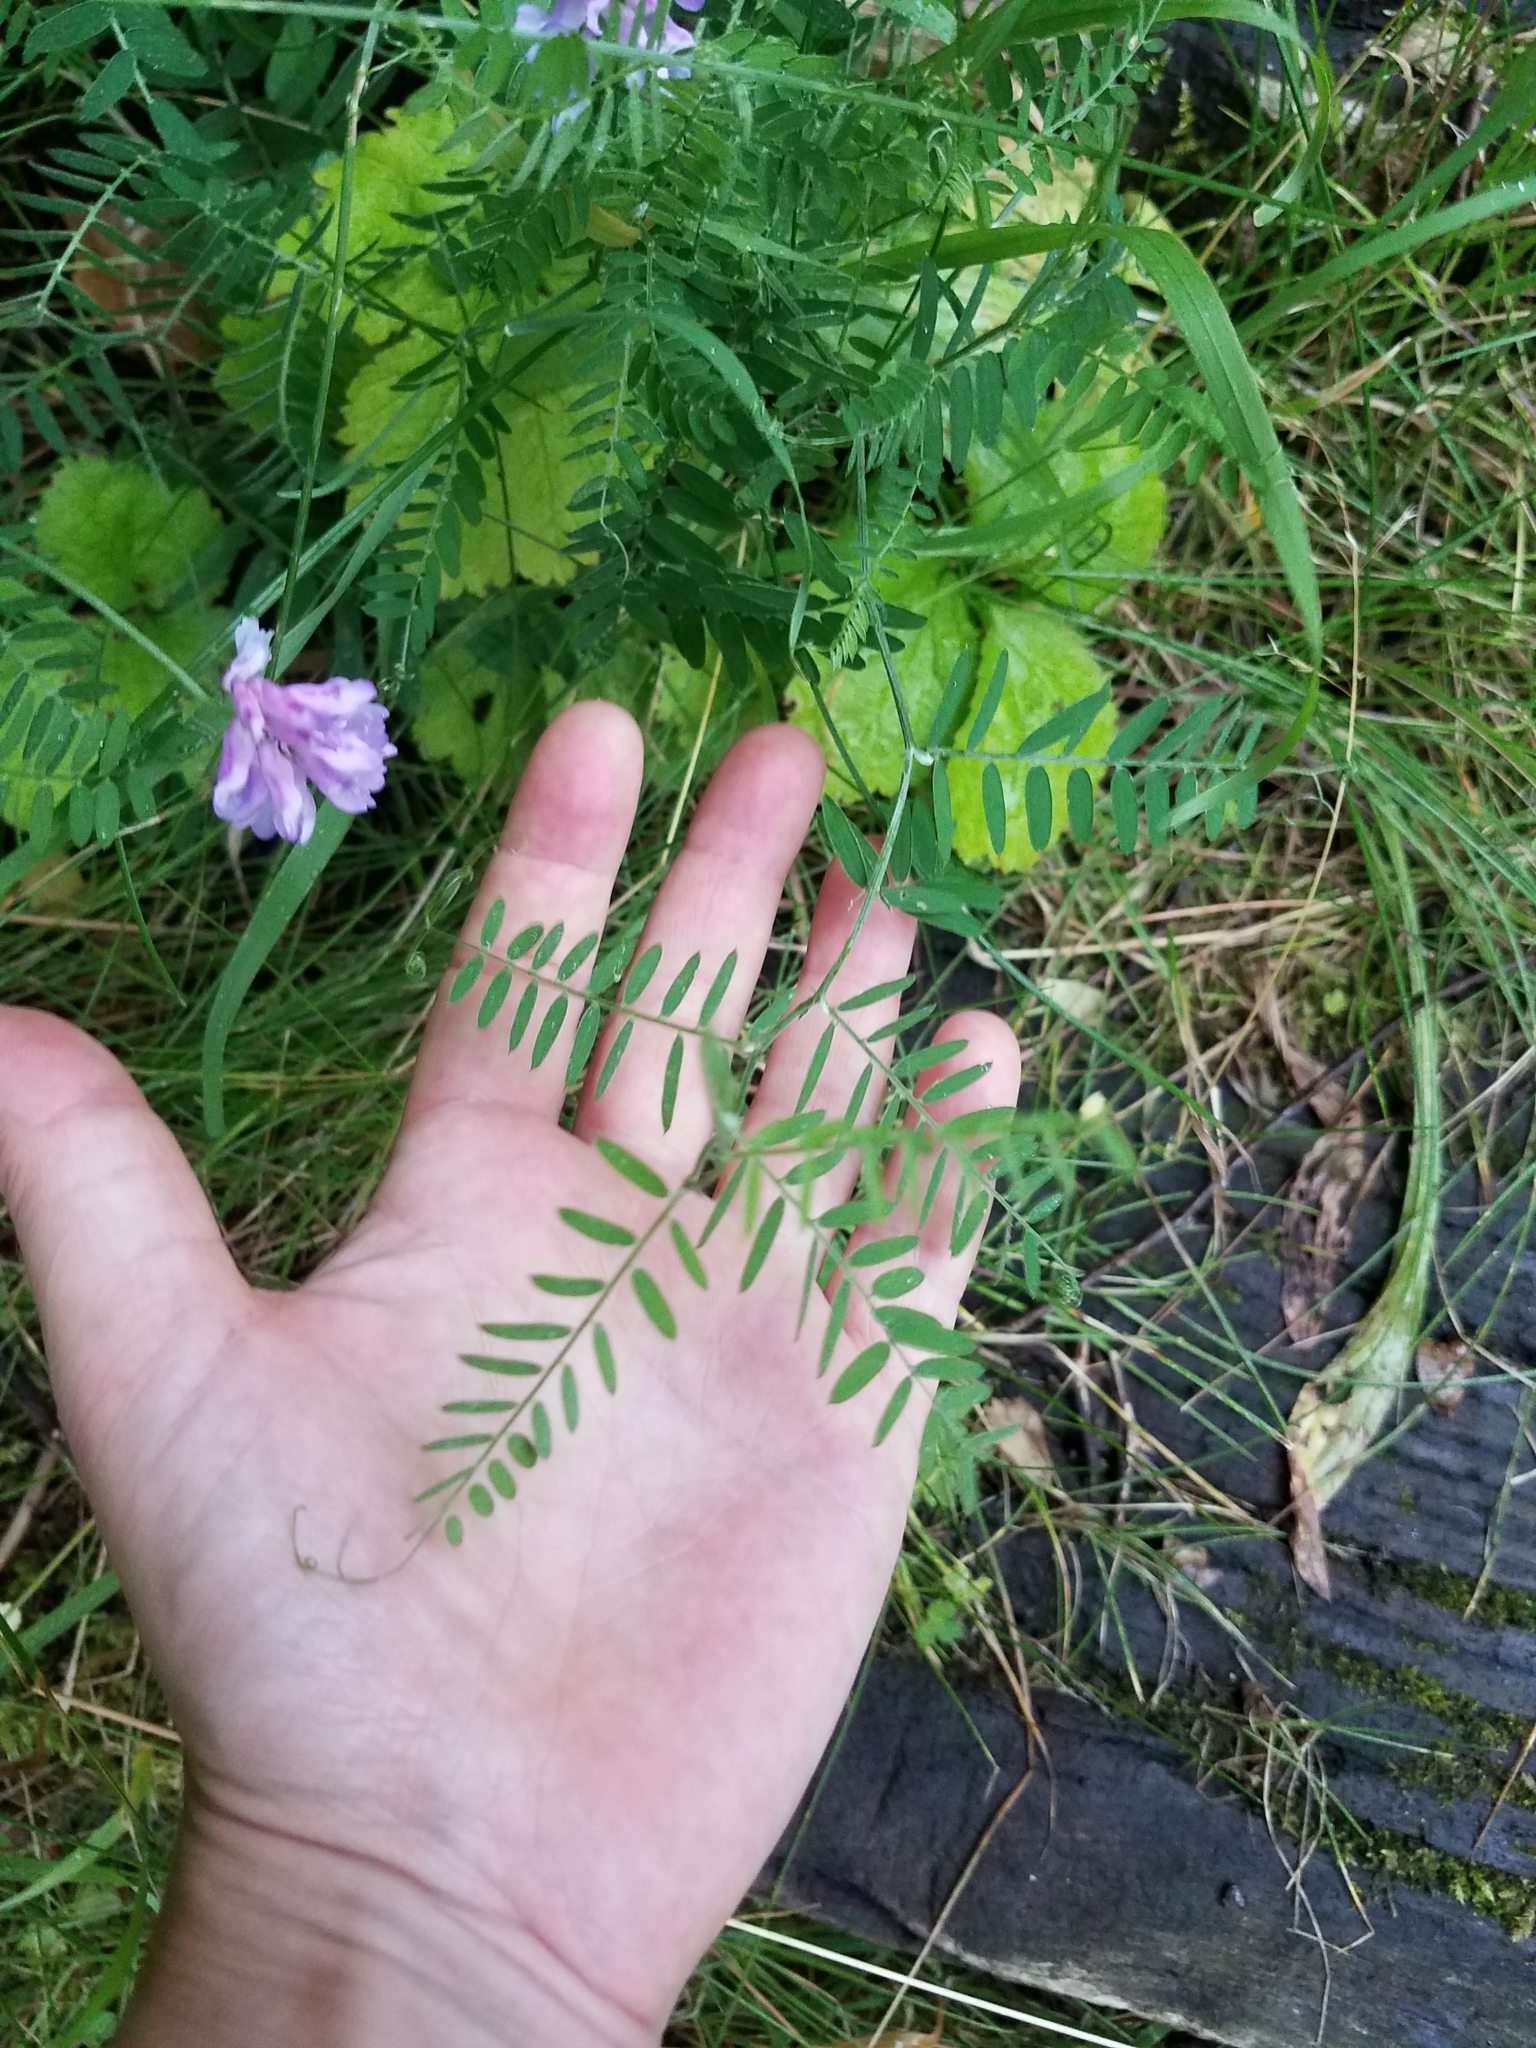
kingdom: Plantae
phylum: Tracheophyta
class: Magnoliopsida
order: Fabales
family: Fabaceae
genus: Vicia
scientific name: Vicia cracca
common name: Bird vetch
